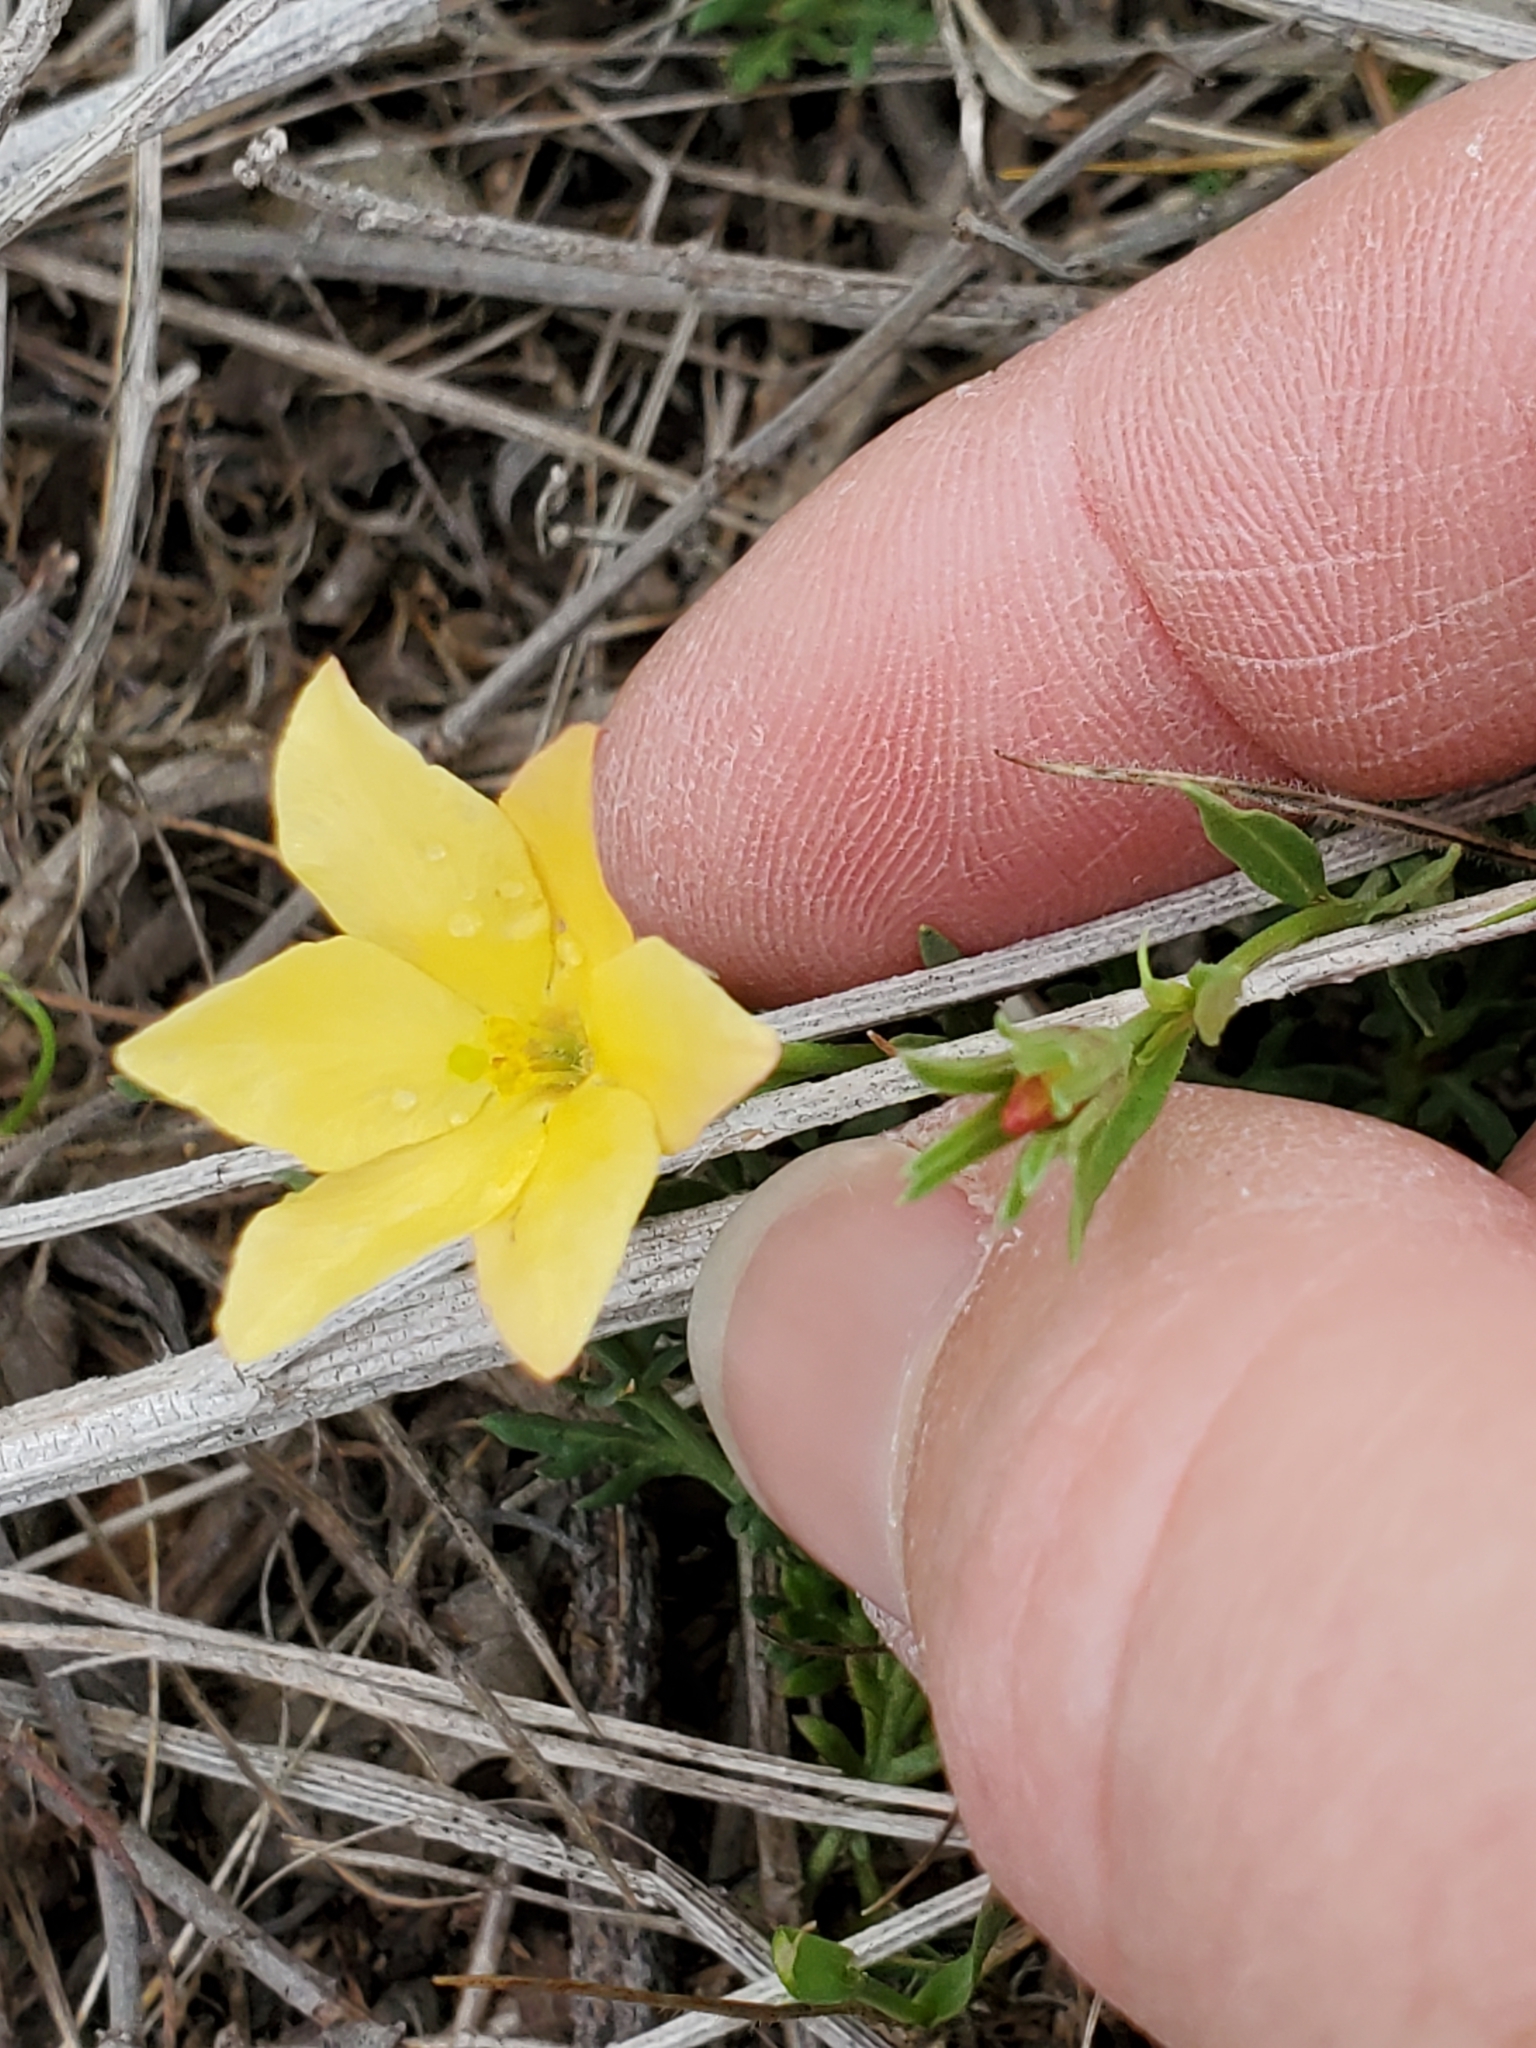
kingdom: Plantae
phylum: Tracheophyta
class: Magnoliopsida
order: Lamiales
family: Oleaceae
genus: Menodora
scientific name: Menodora heterophylla
